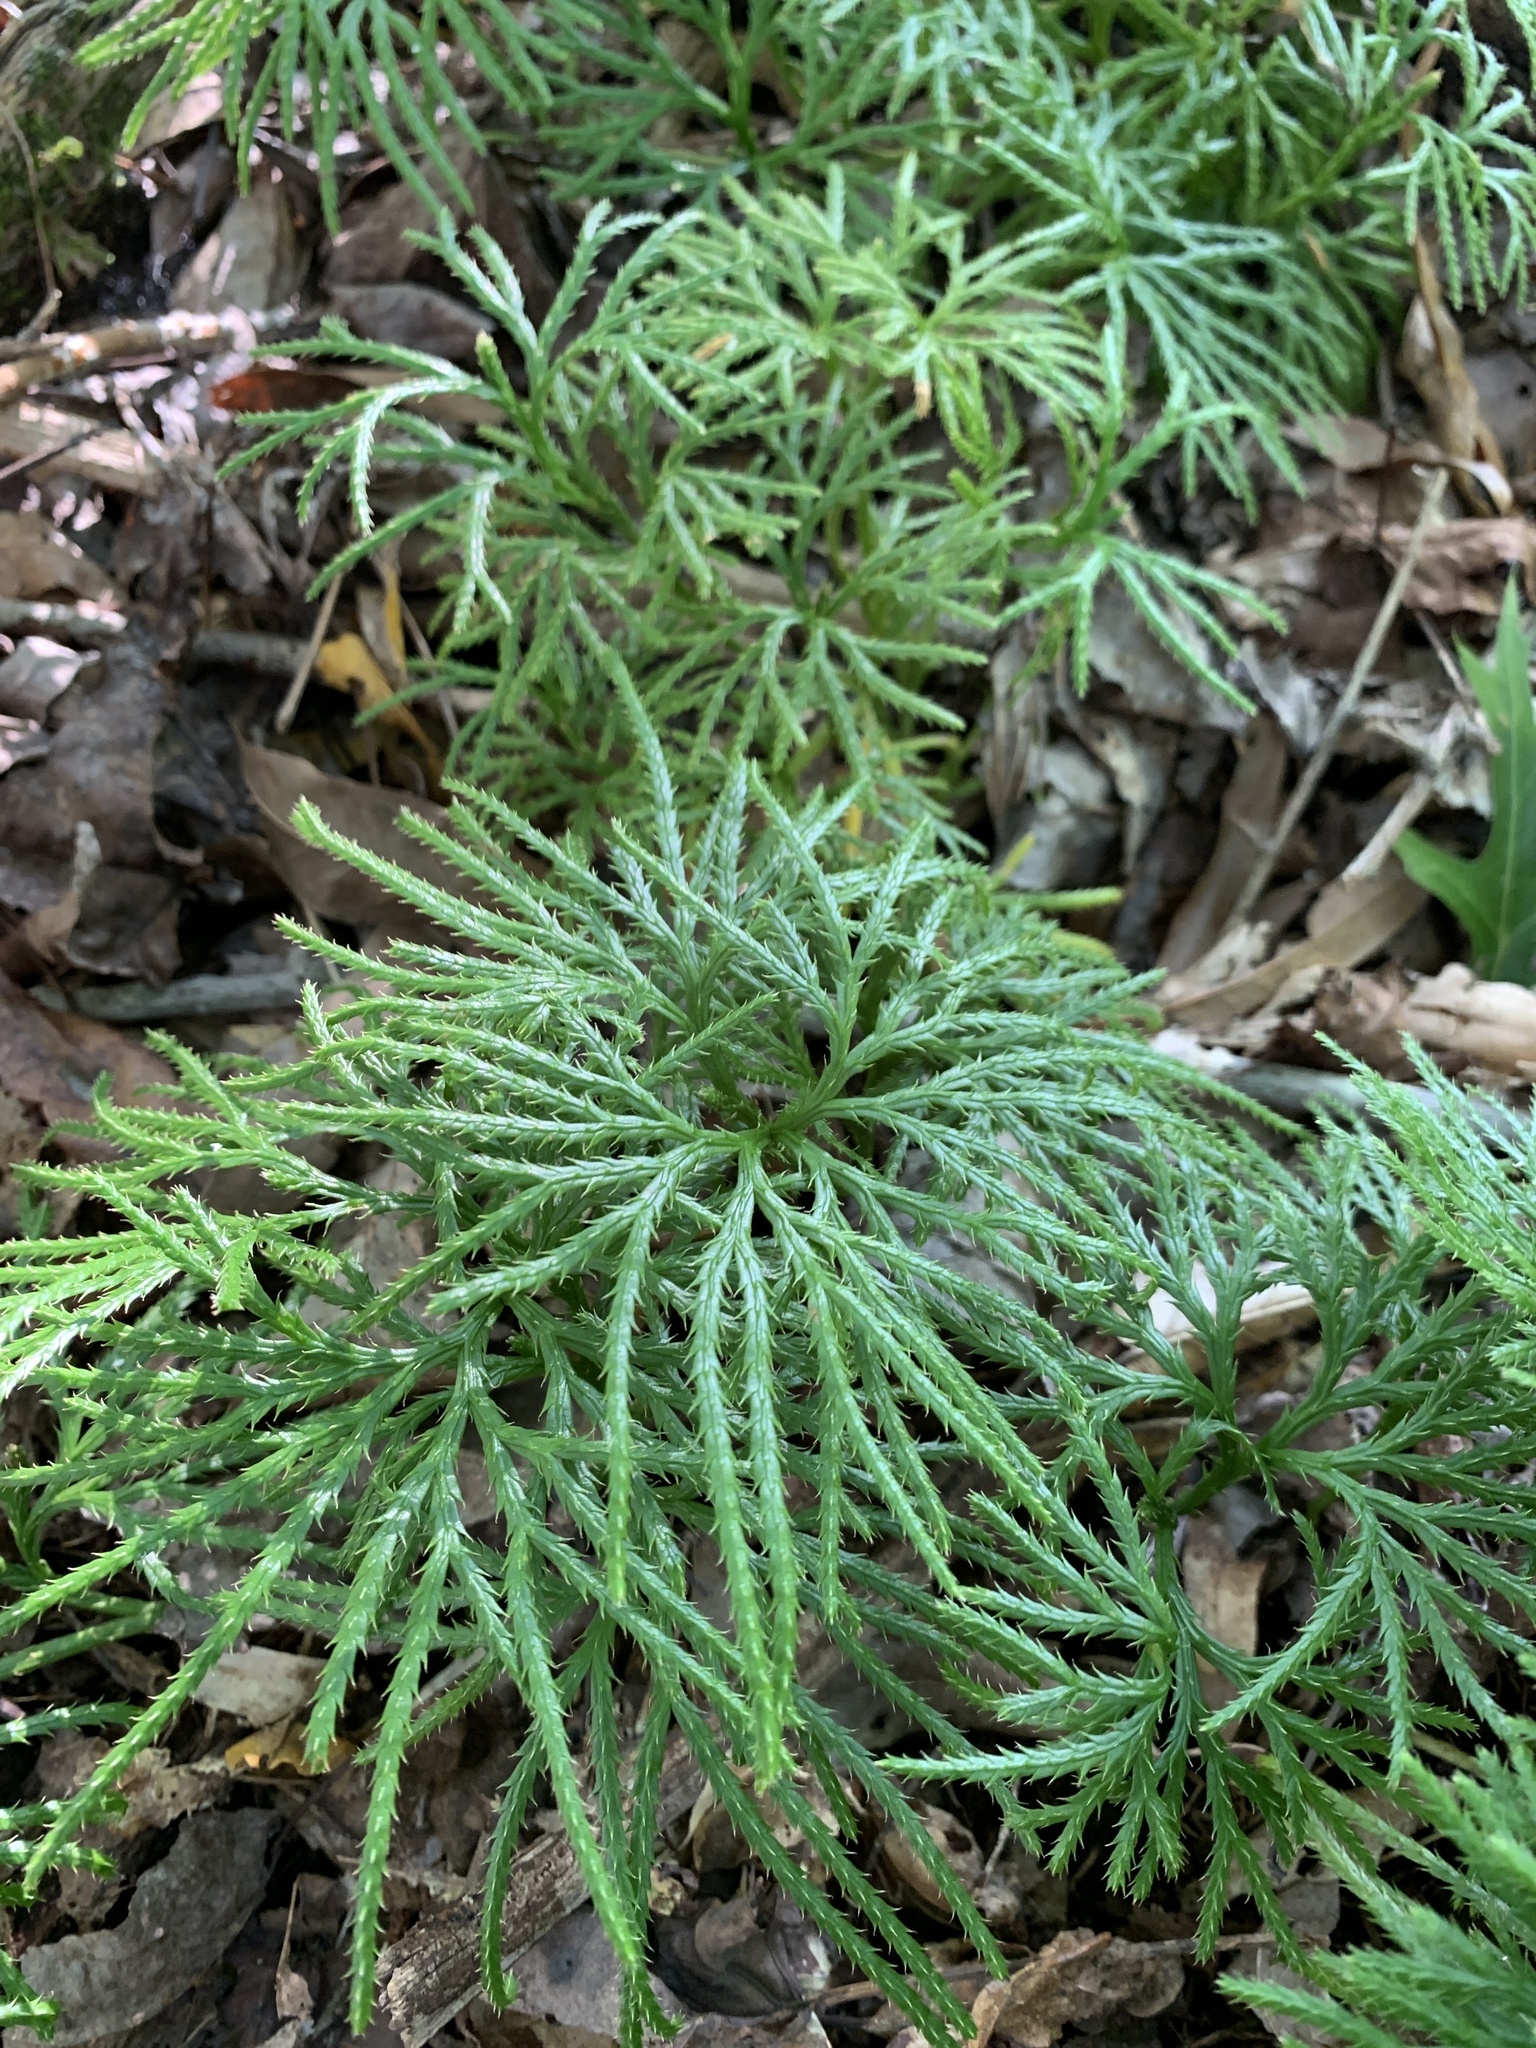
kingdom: Plantae
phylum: Tracheophyta
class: Lycopodiopsida
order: Lycopodiales
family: Lycopodiaceae
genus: Diphasiastrum
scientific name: Diphasiastrum digitatum
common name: Southern running-pine
